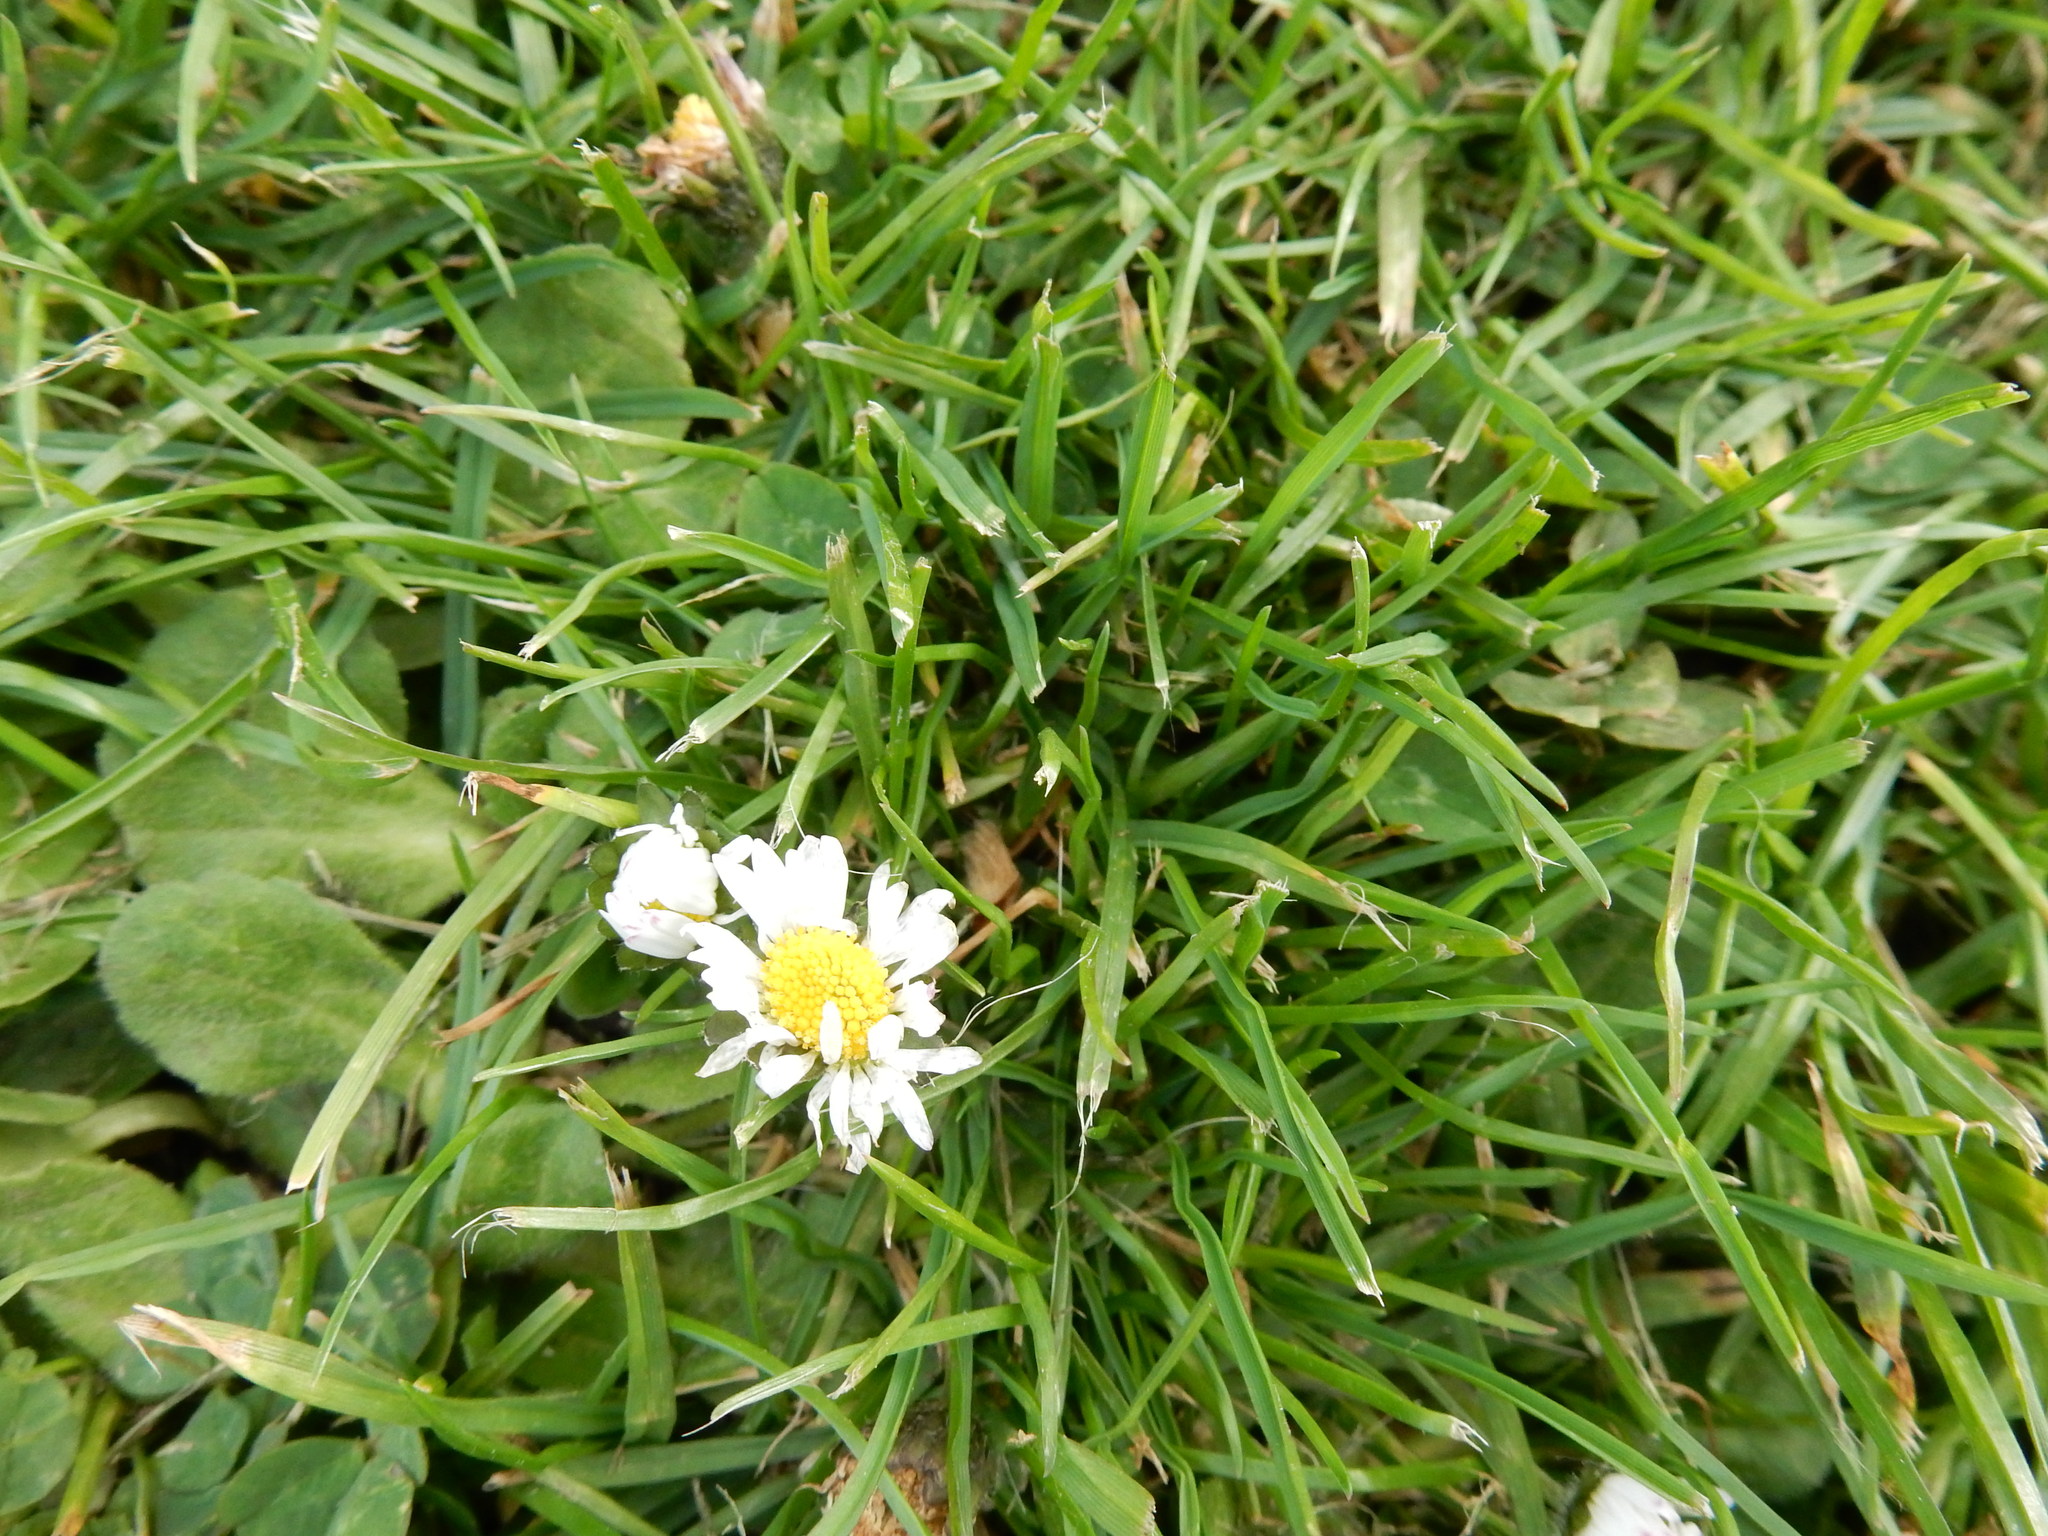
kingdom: Plantae
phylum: Tracheophyta
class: Magnoliopsida
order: Asterales
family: Asteraceae
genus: Bellis
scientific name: Bellis perennis
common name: Lawndaisy
